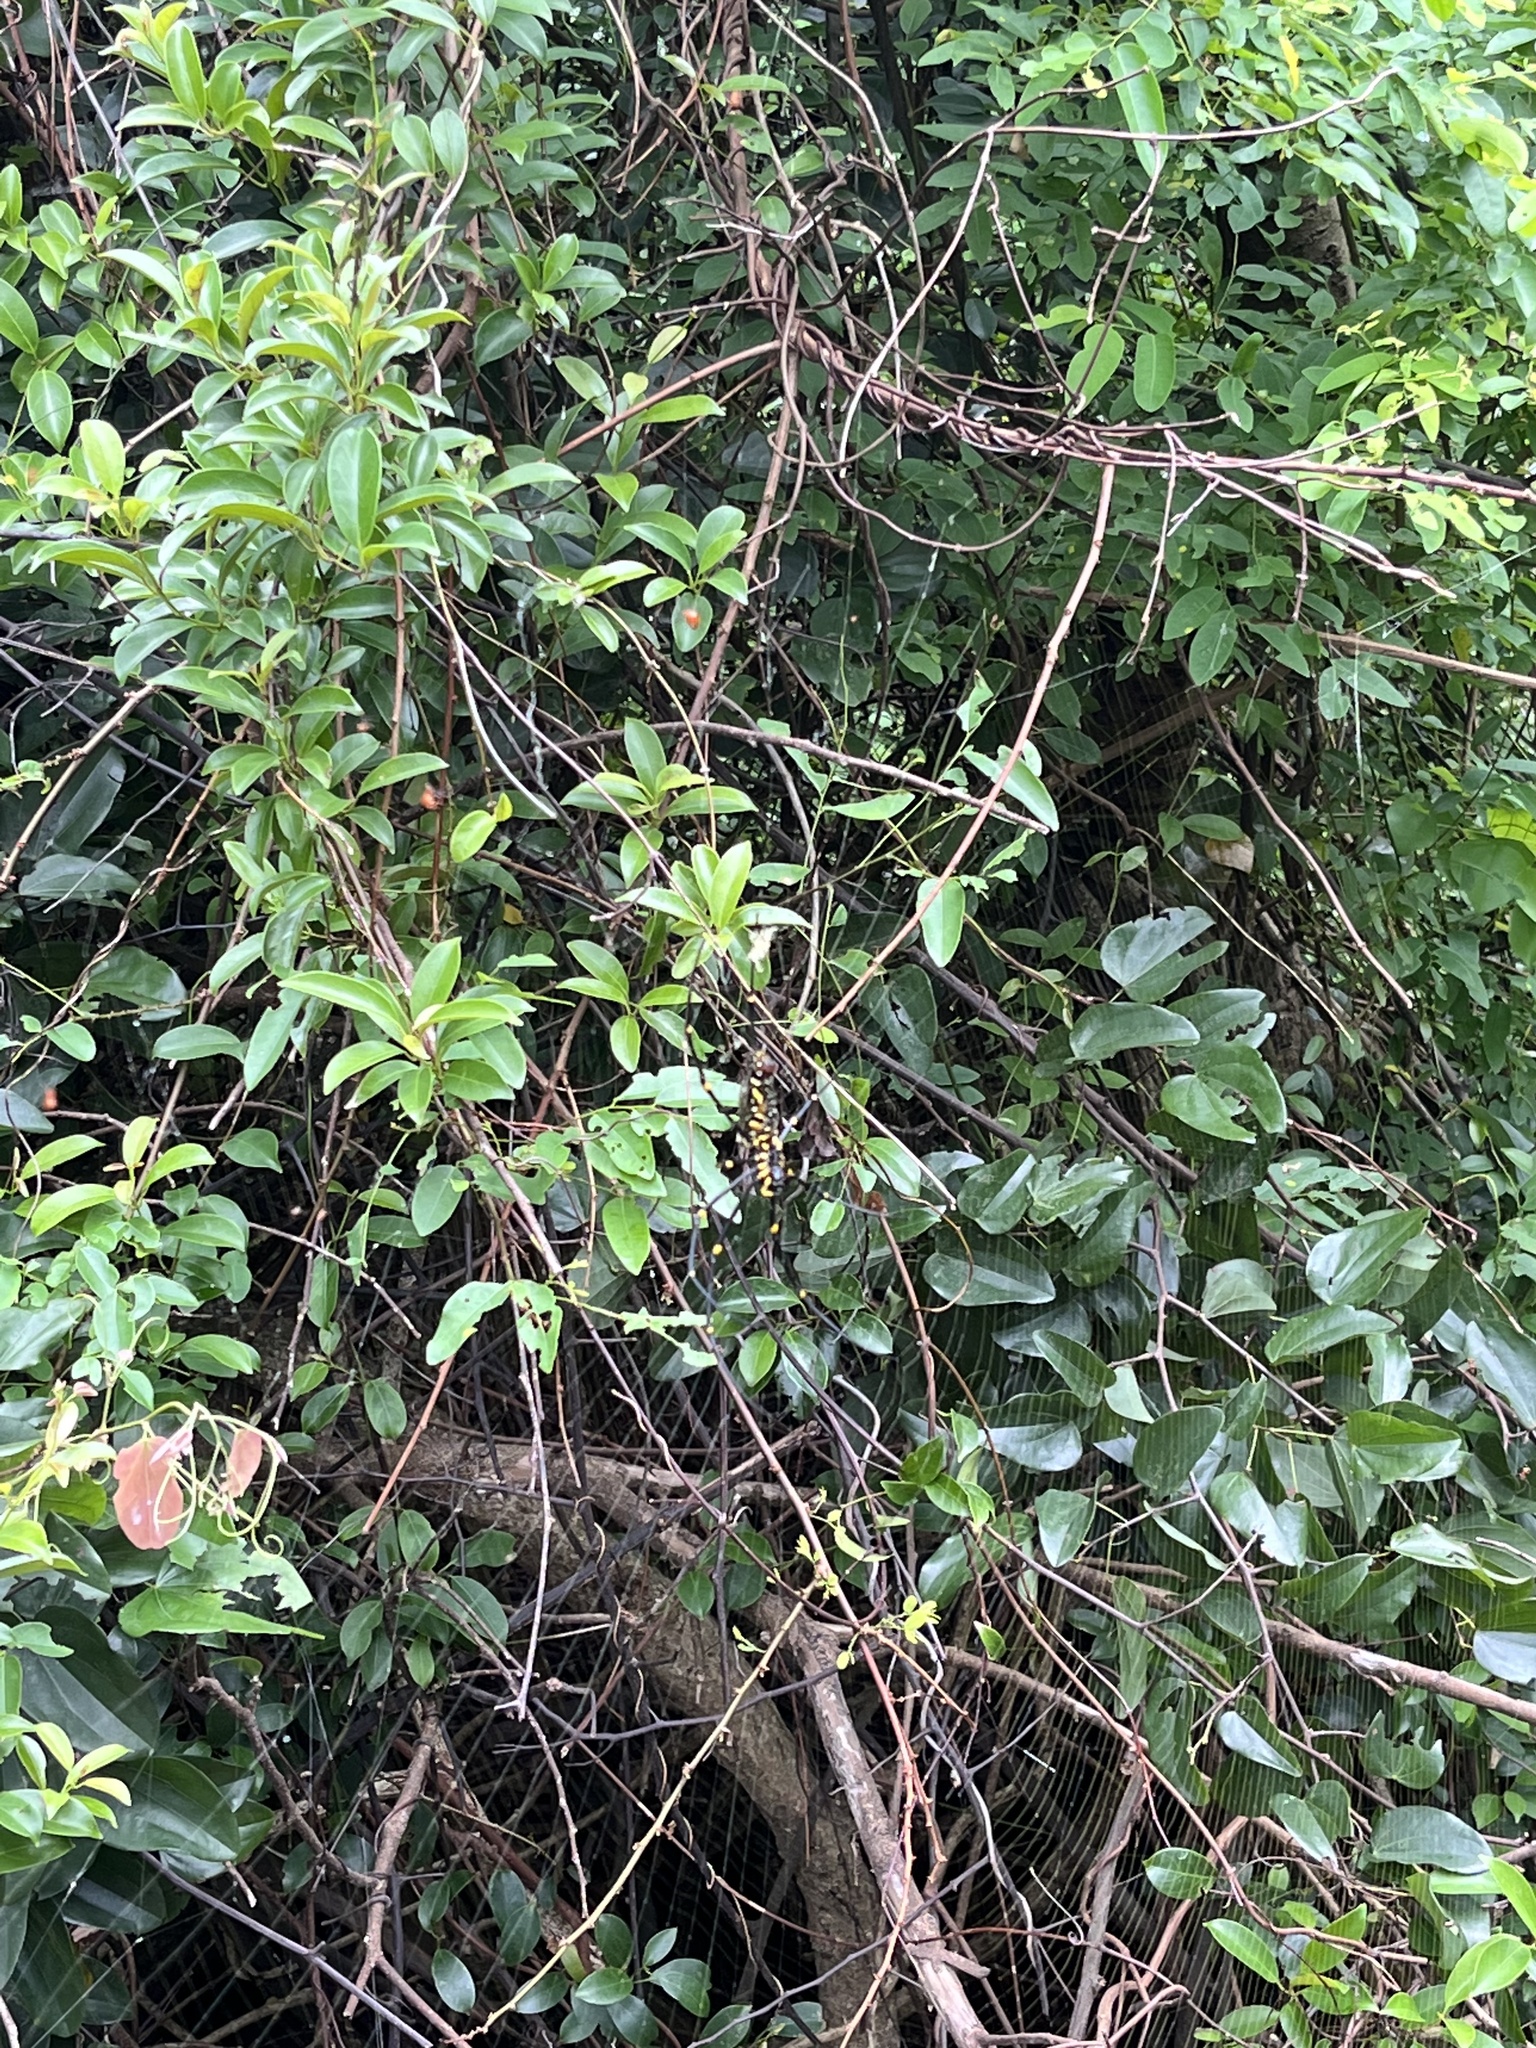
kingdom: Animalia
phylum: Arthropoda
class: Arachnida
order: Araneae
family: Araneidae
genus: Nephila
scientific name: Nephila pilipes
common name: Giant golden orb weaver
